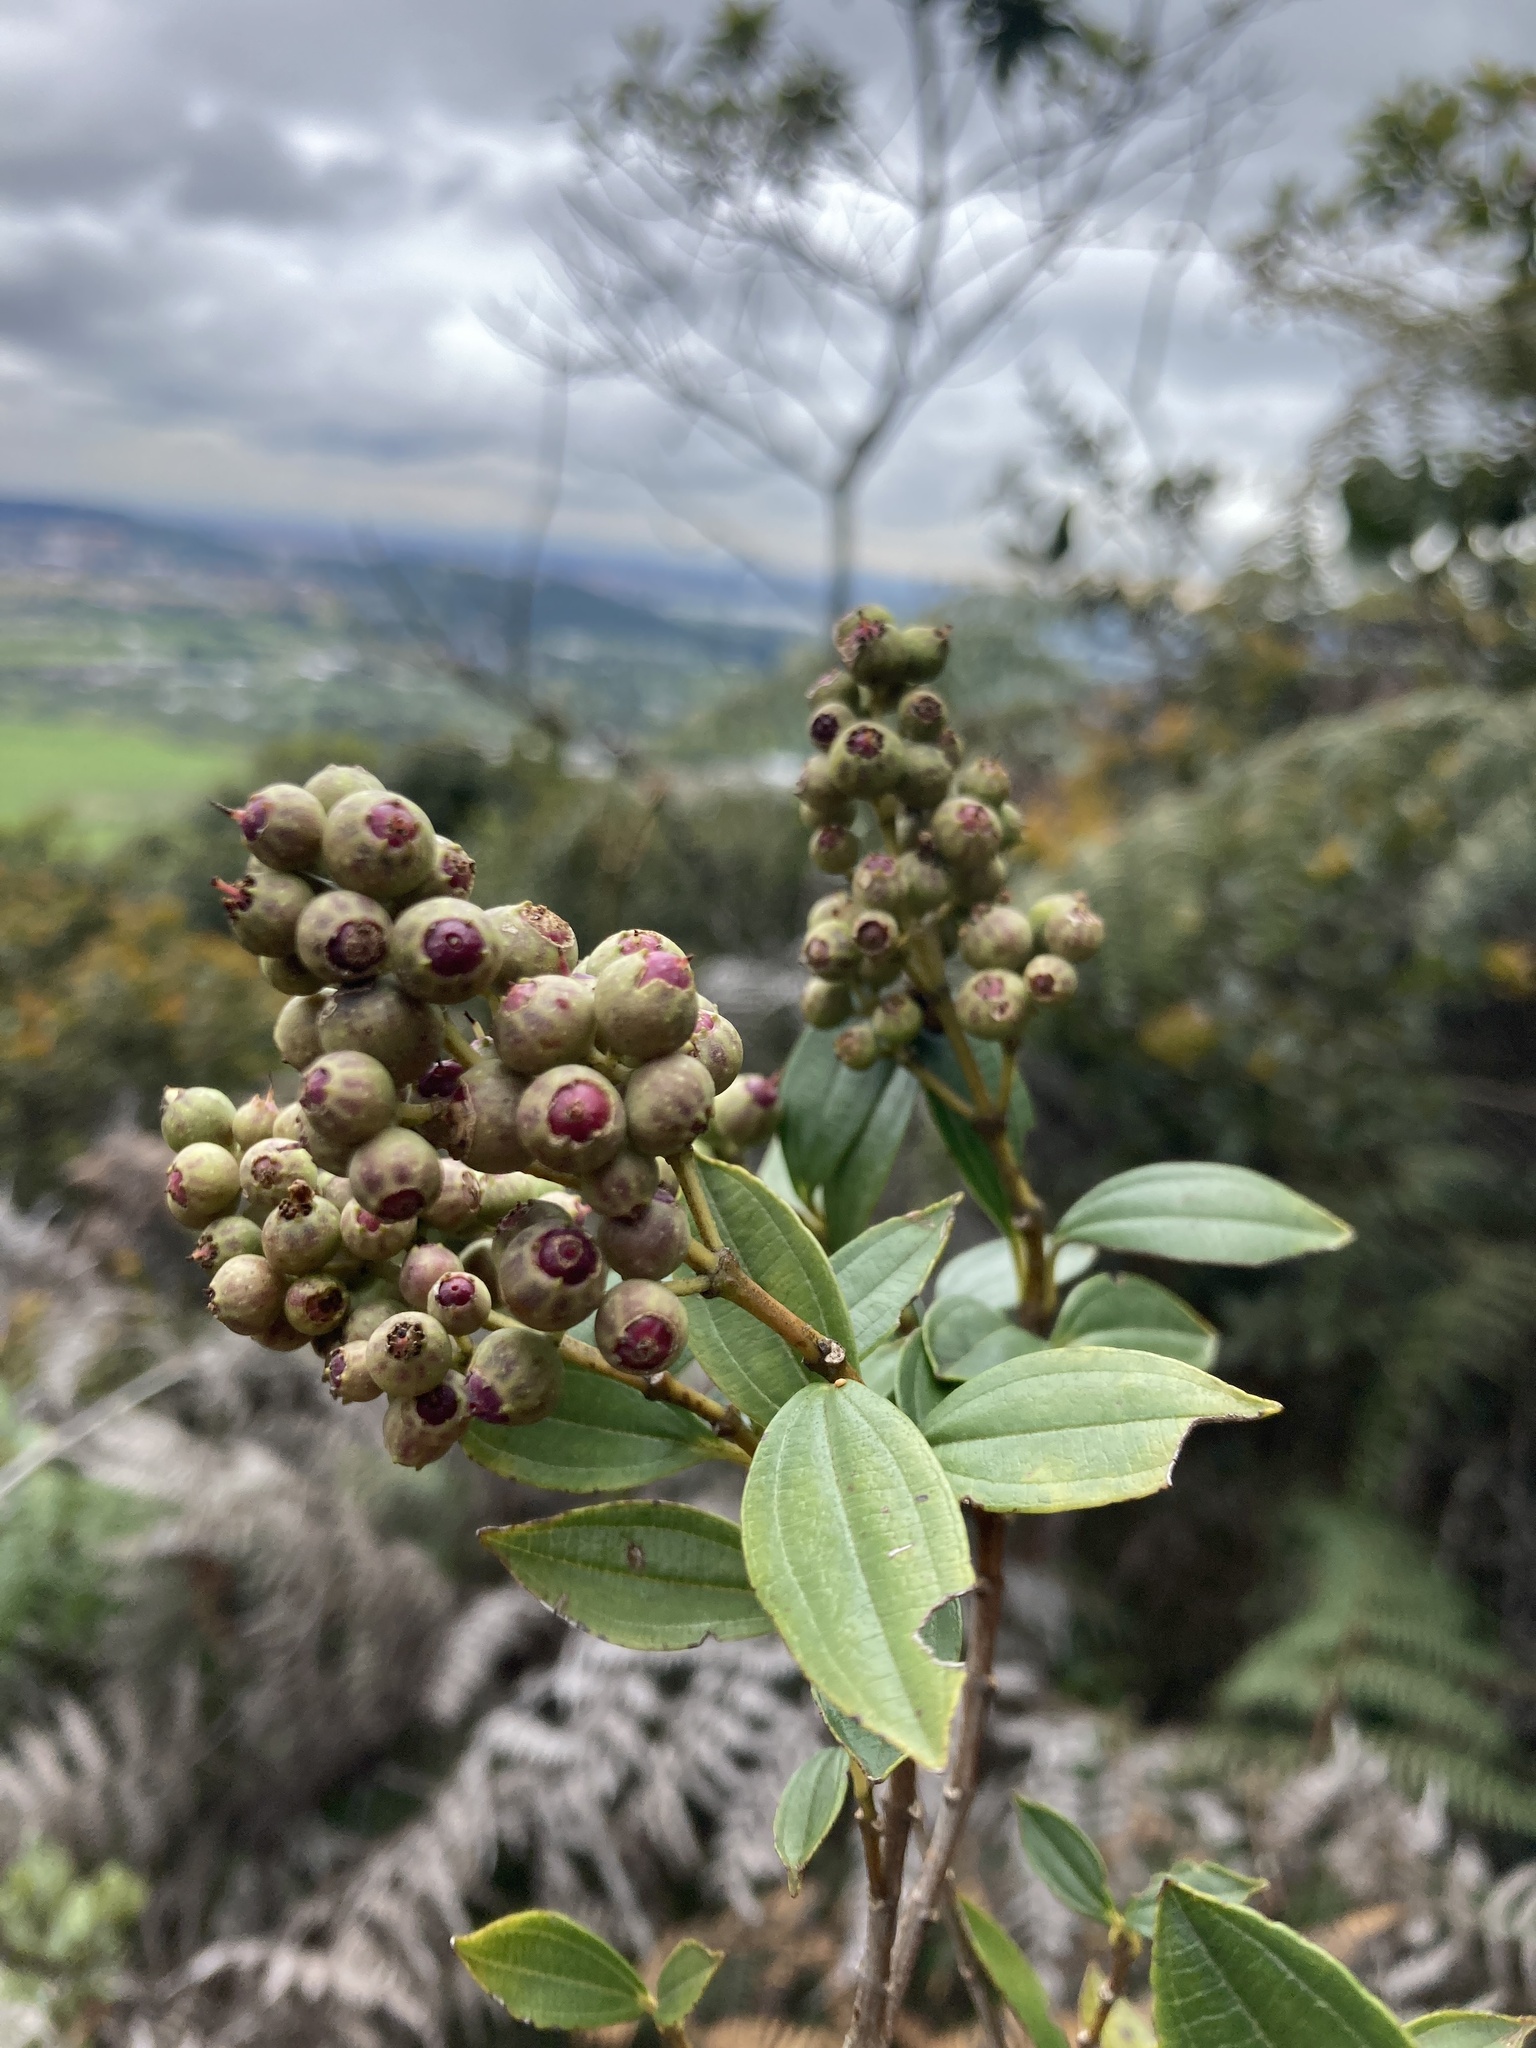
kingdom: Plantae
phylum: Tracheophyta
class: Magnoliopsida
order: Myrtales
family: Melastomataceae
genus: Miconia
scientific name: Miconia ligustrina
